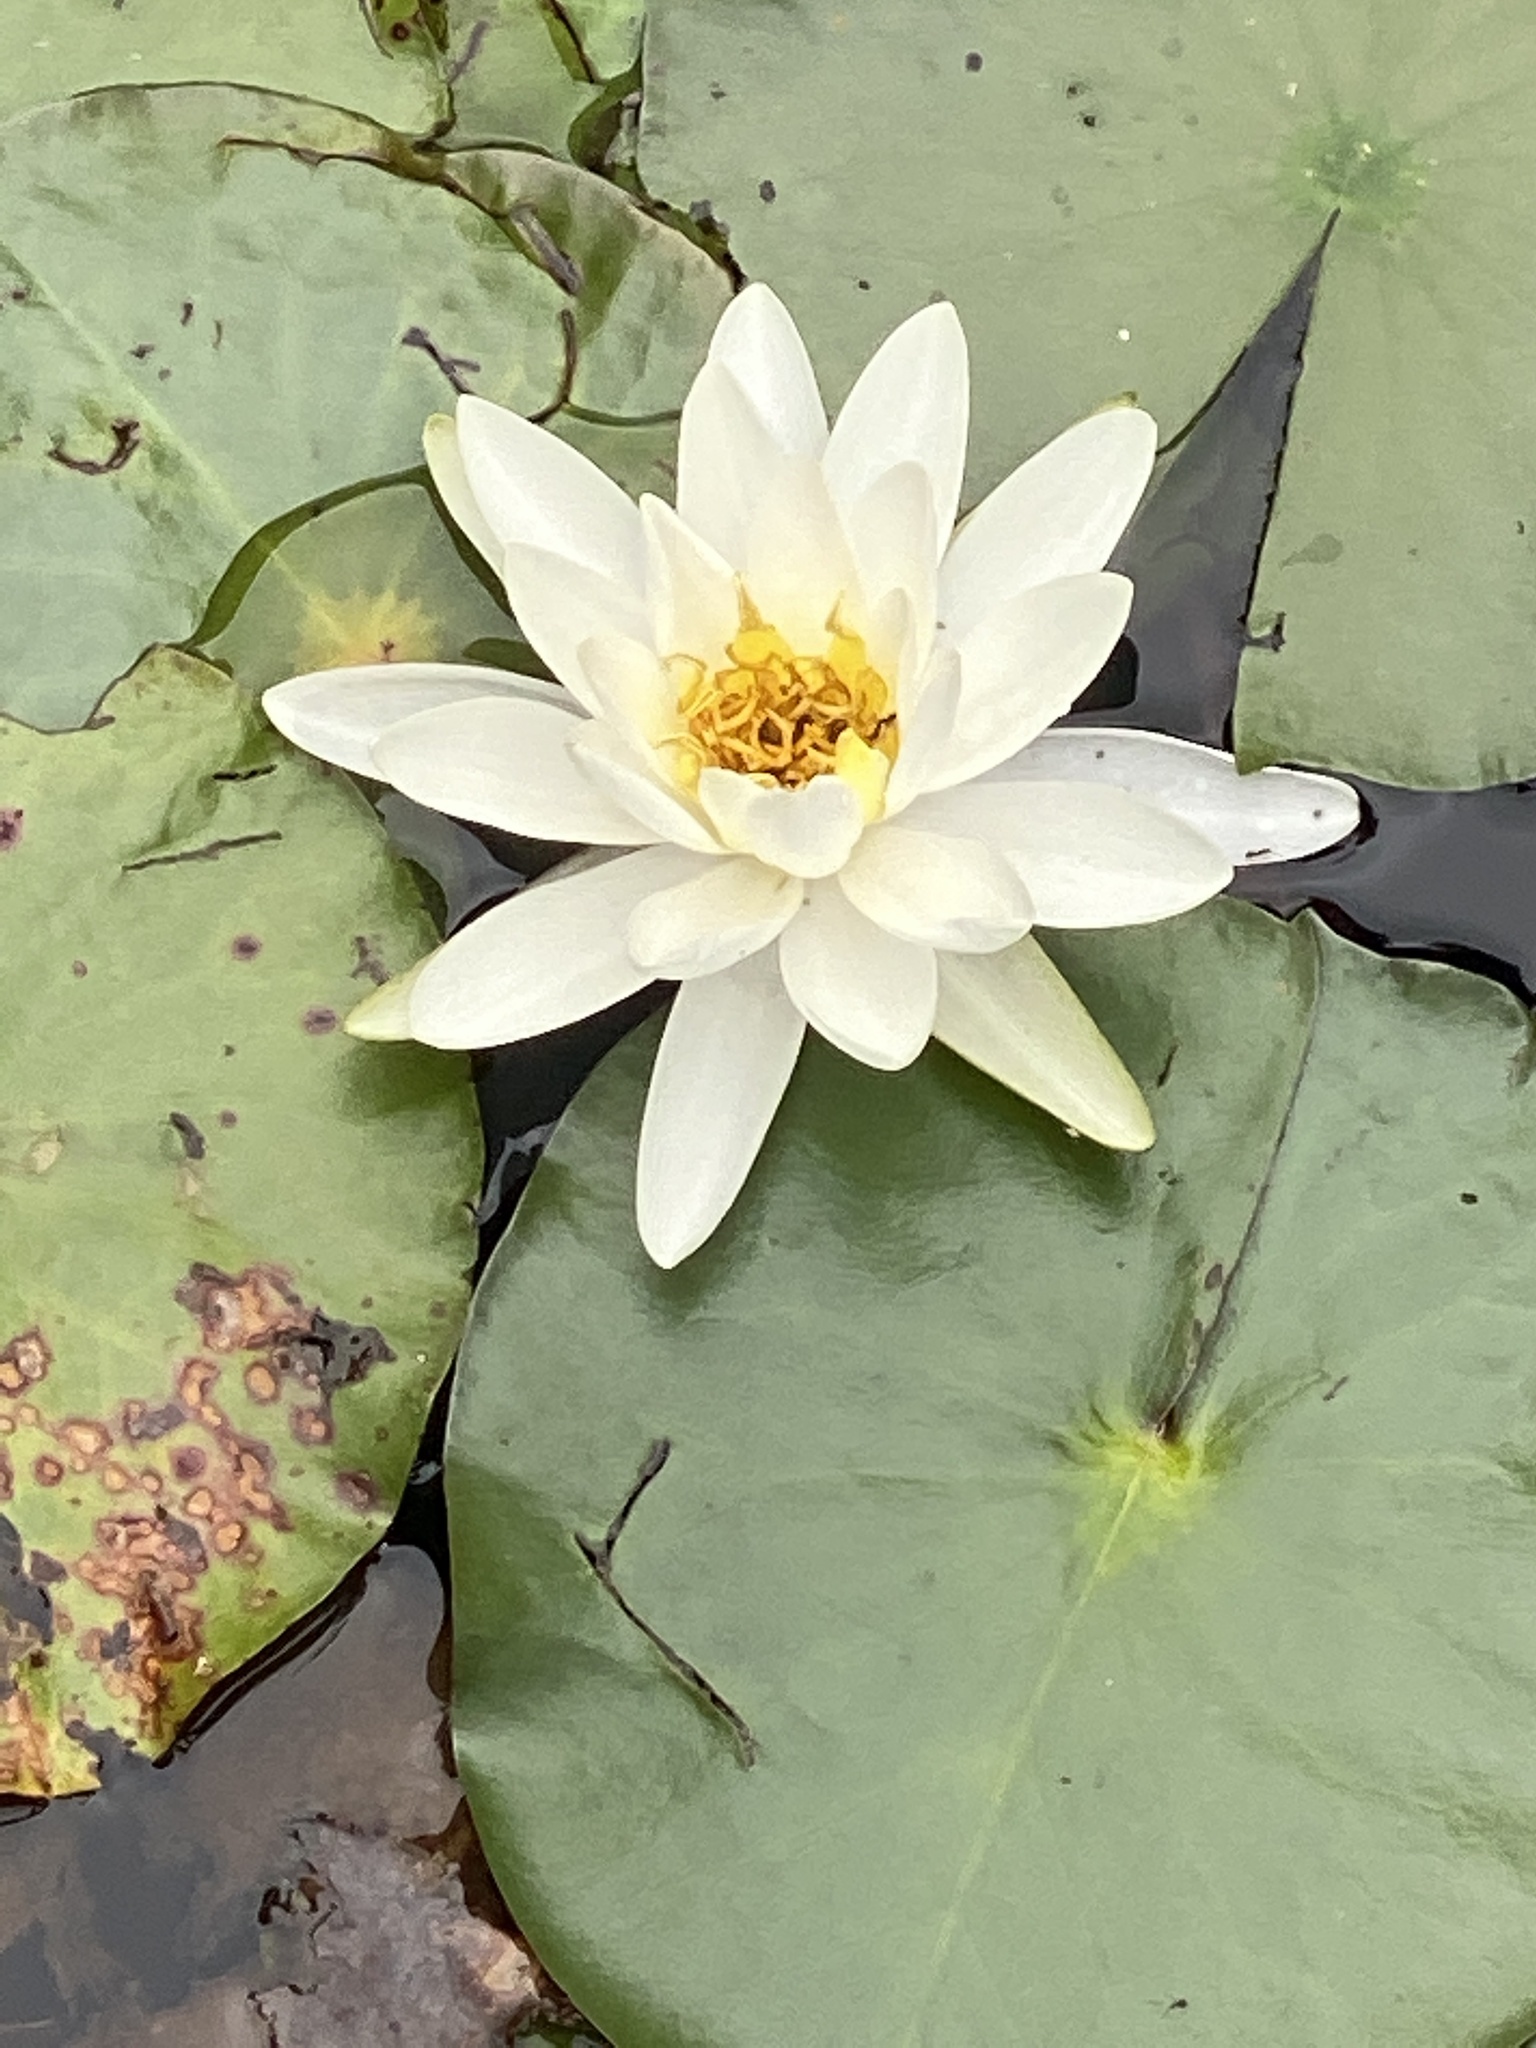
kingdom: Plantae
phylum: Tracheophyta
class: Magnoliopsida
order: Nymphaeales
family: Nymphaeaceae
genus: Nymphaea
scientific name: Nymphaea odorata
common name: Fragrant water-lily
